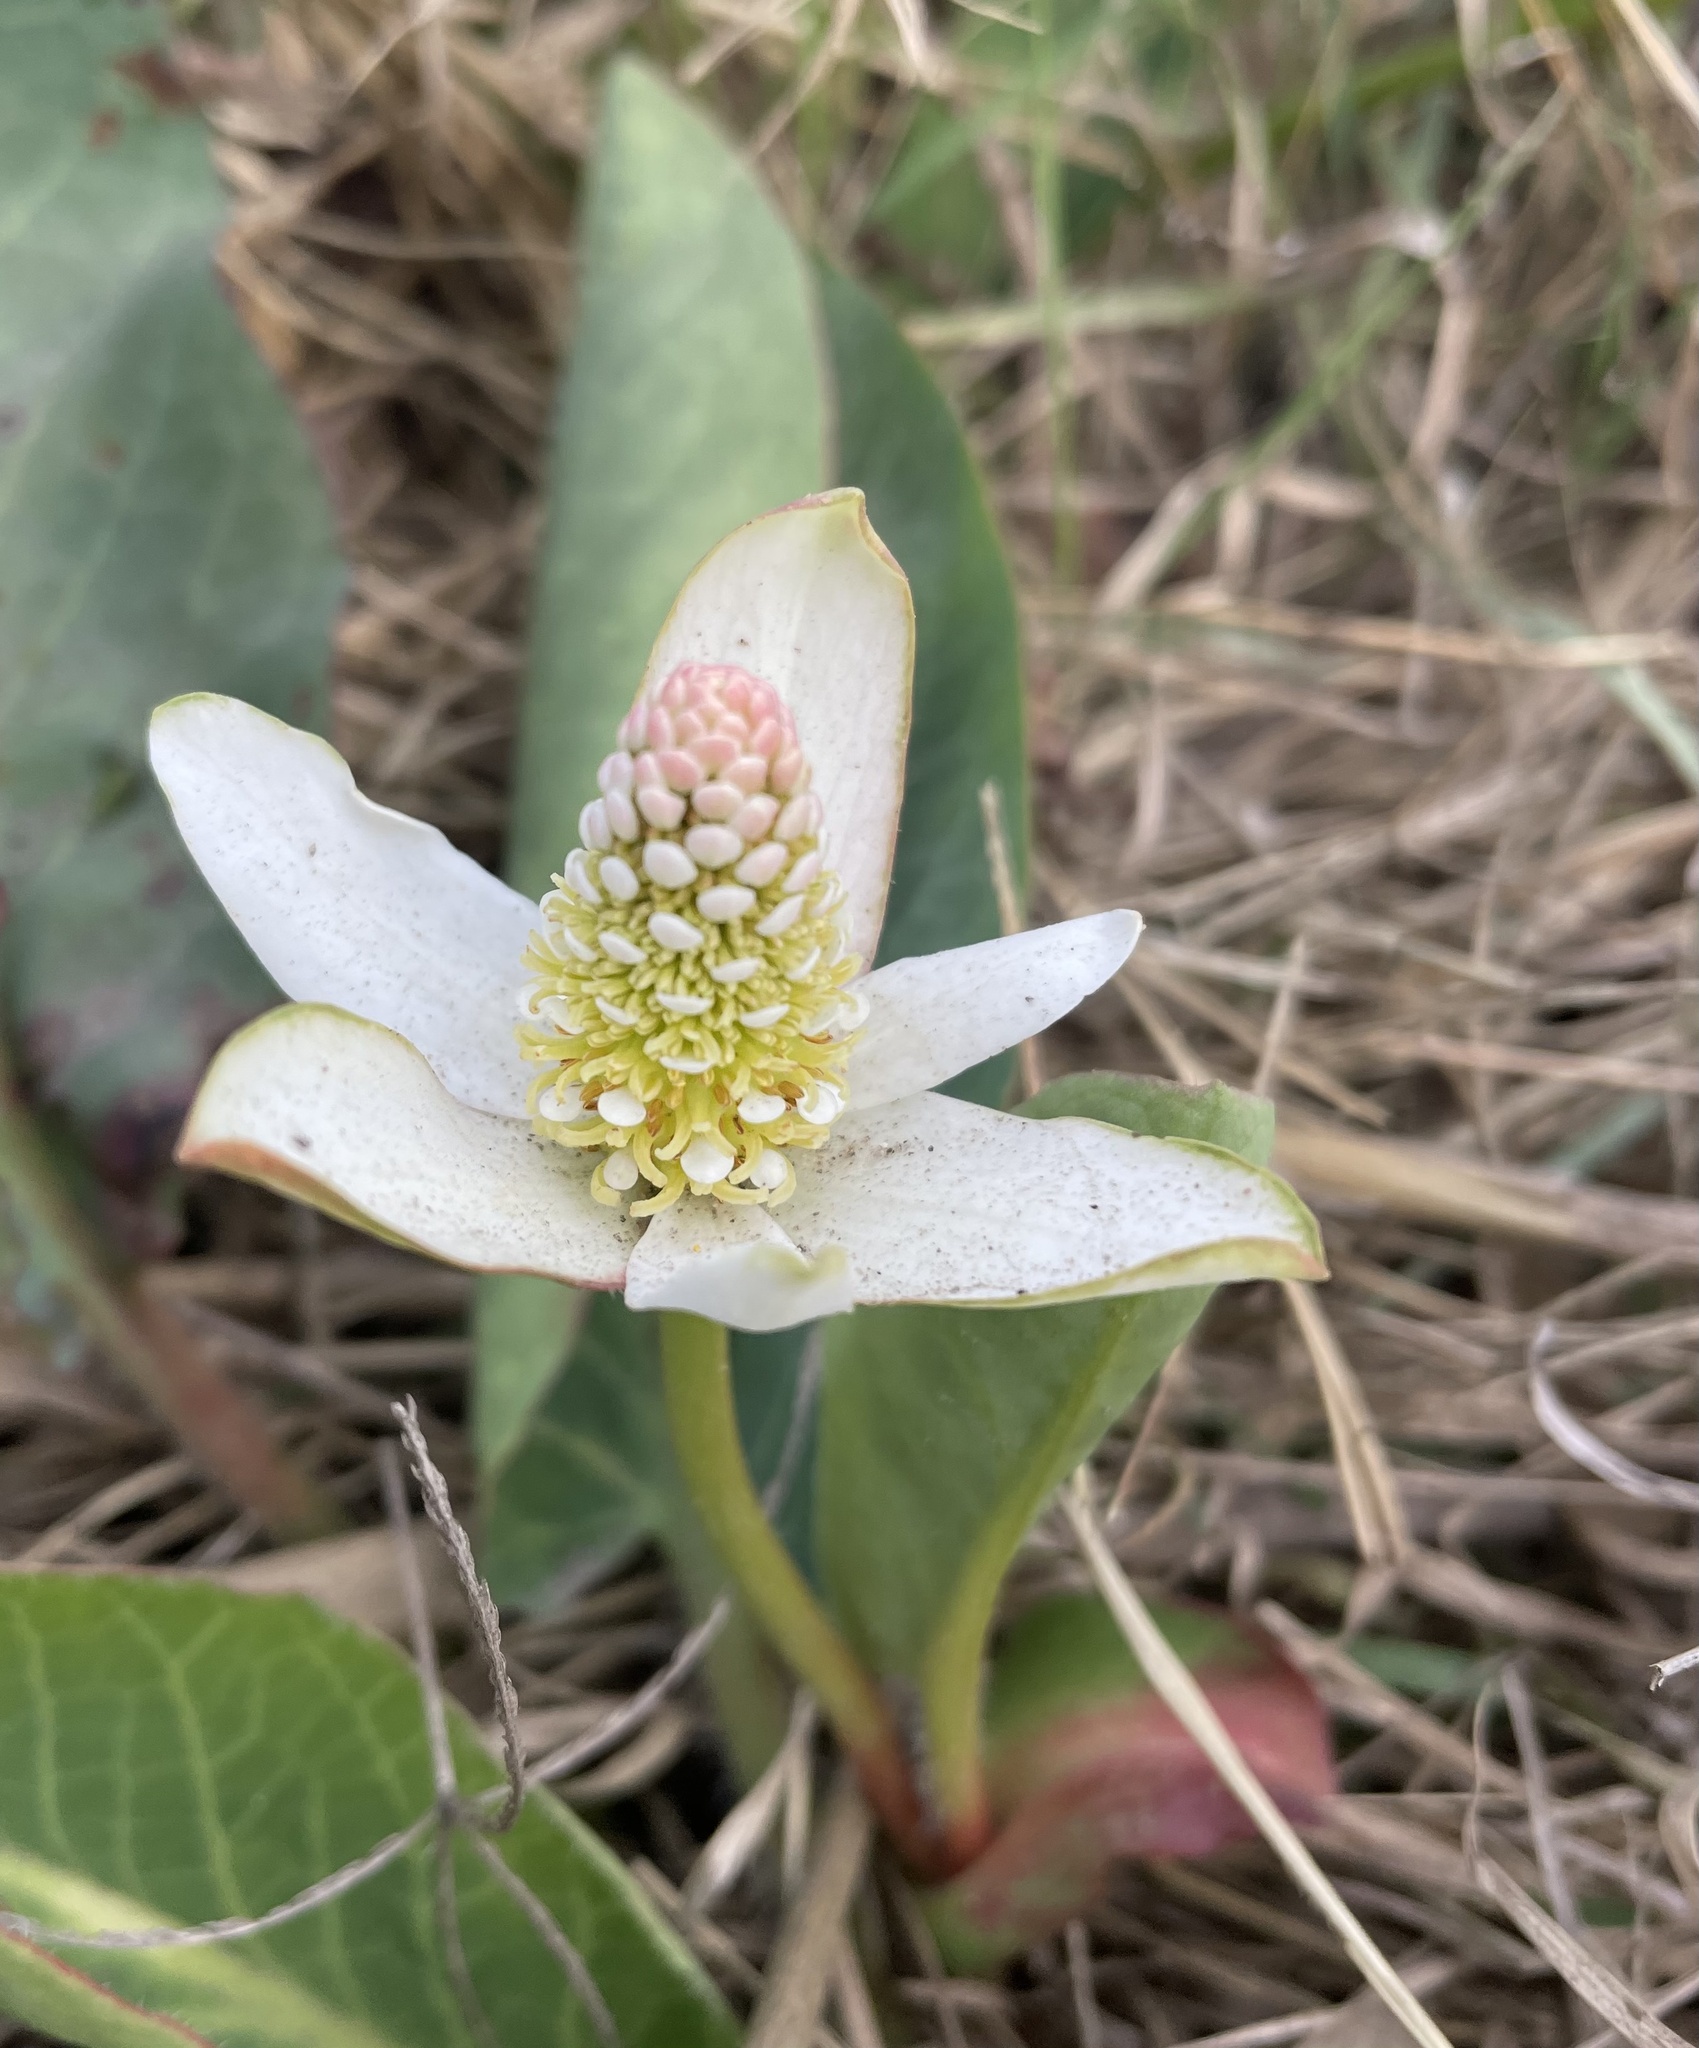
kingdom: Plantae
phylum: Tracheophyta
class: Magnoliopsida
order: Piperales
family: Saururaceae
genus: Anemopsis
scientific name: Anemopsis californica
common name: Apache-beads
